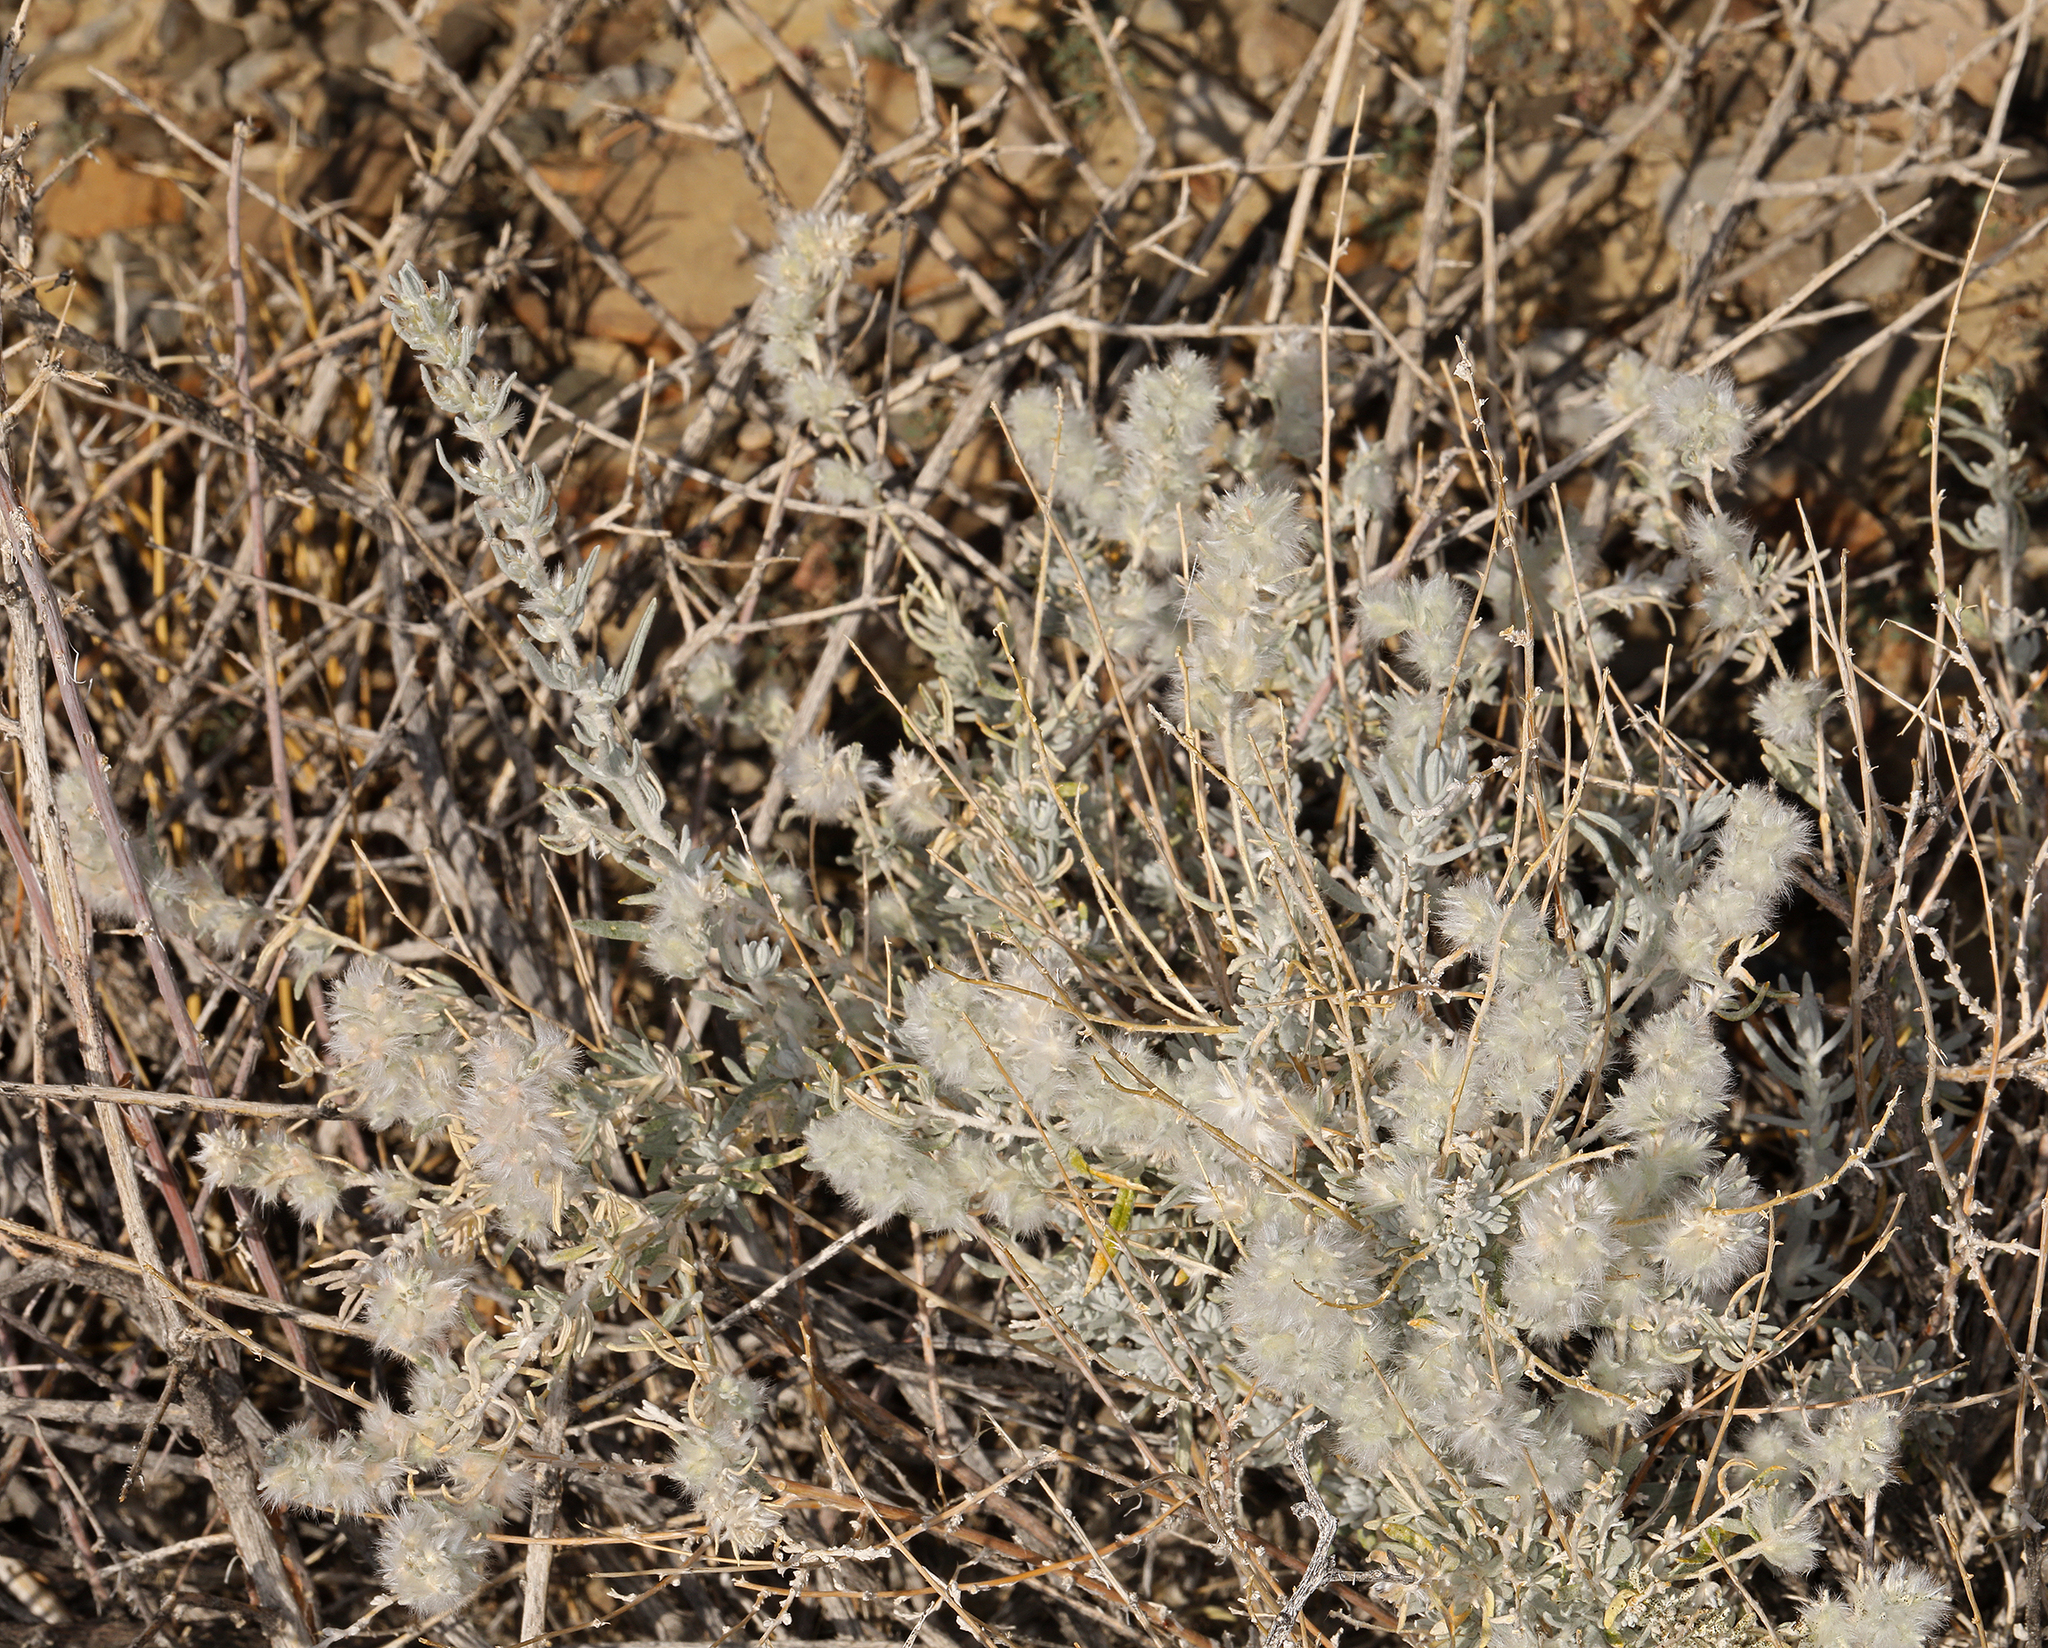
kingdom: Plantae
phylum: Tracheophyta
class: Magnoliopsida
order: Caryophyllales
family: Amaranthaceae
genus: Krascheninnikovia
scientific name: Krascheninnikovia lanata
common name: Winterfat
